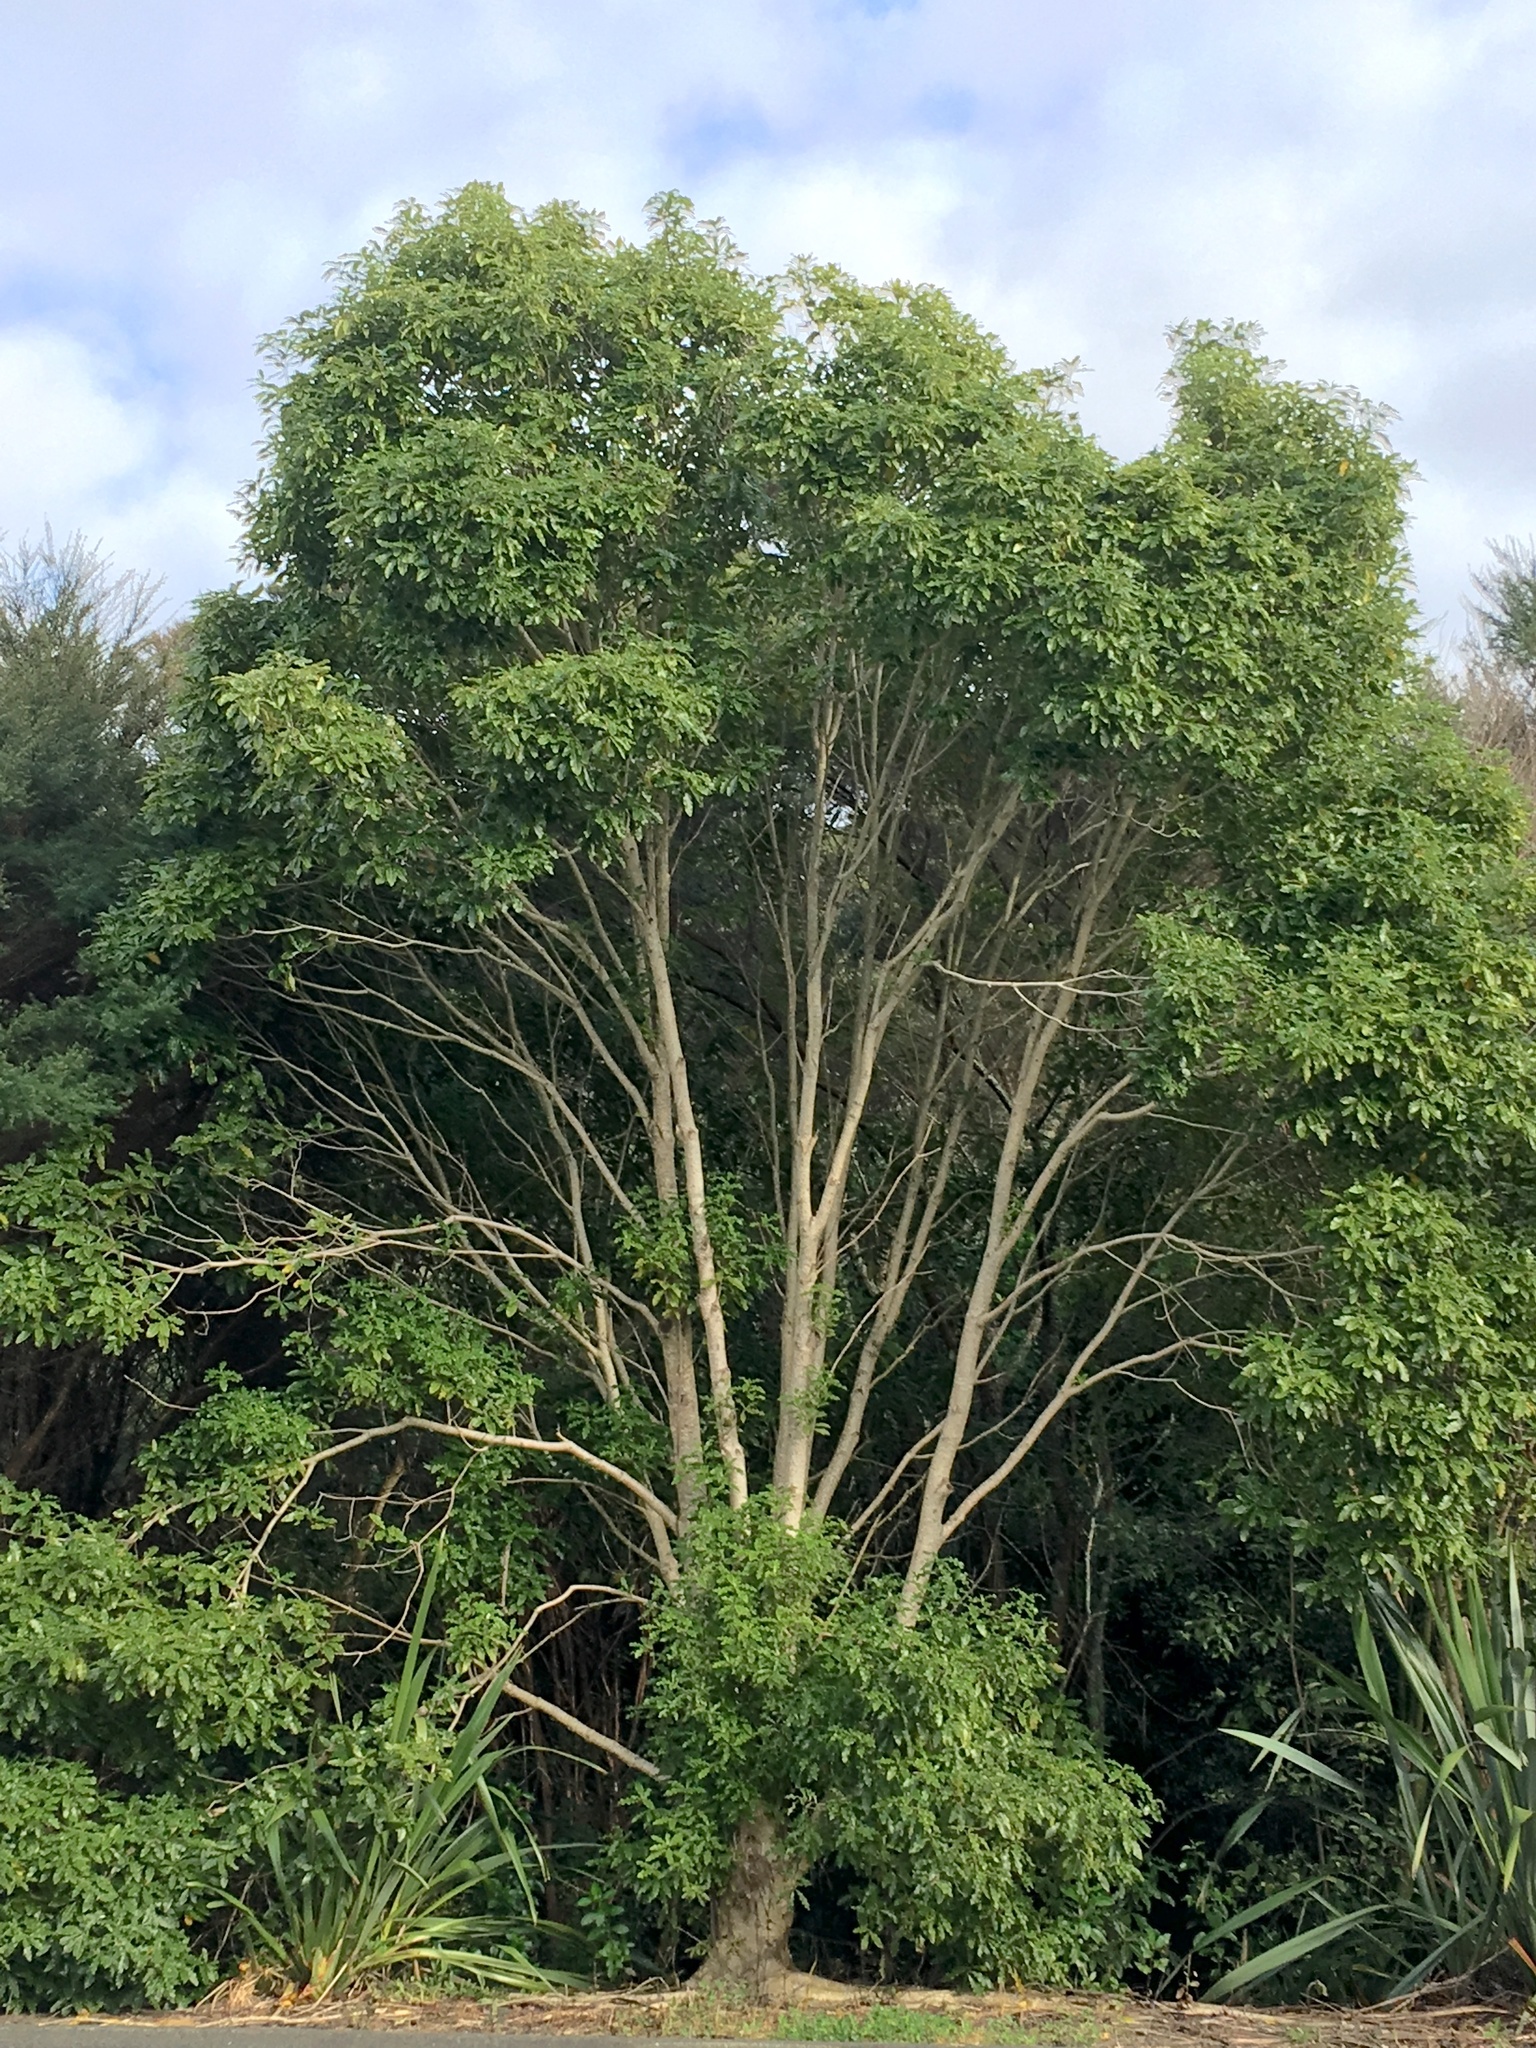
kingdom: Plantae
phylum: Tracheophyta
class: Magnoliopsida
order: Apiales
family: Pittosporaceae
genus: Pittosporum
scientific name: Pittosporum eugenioides
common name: Lemonwood
